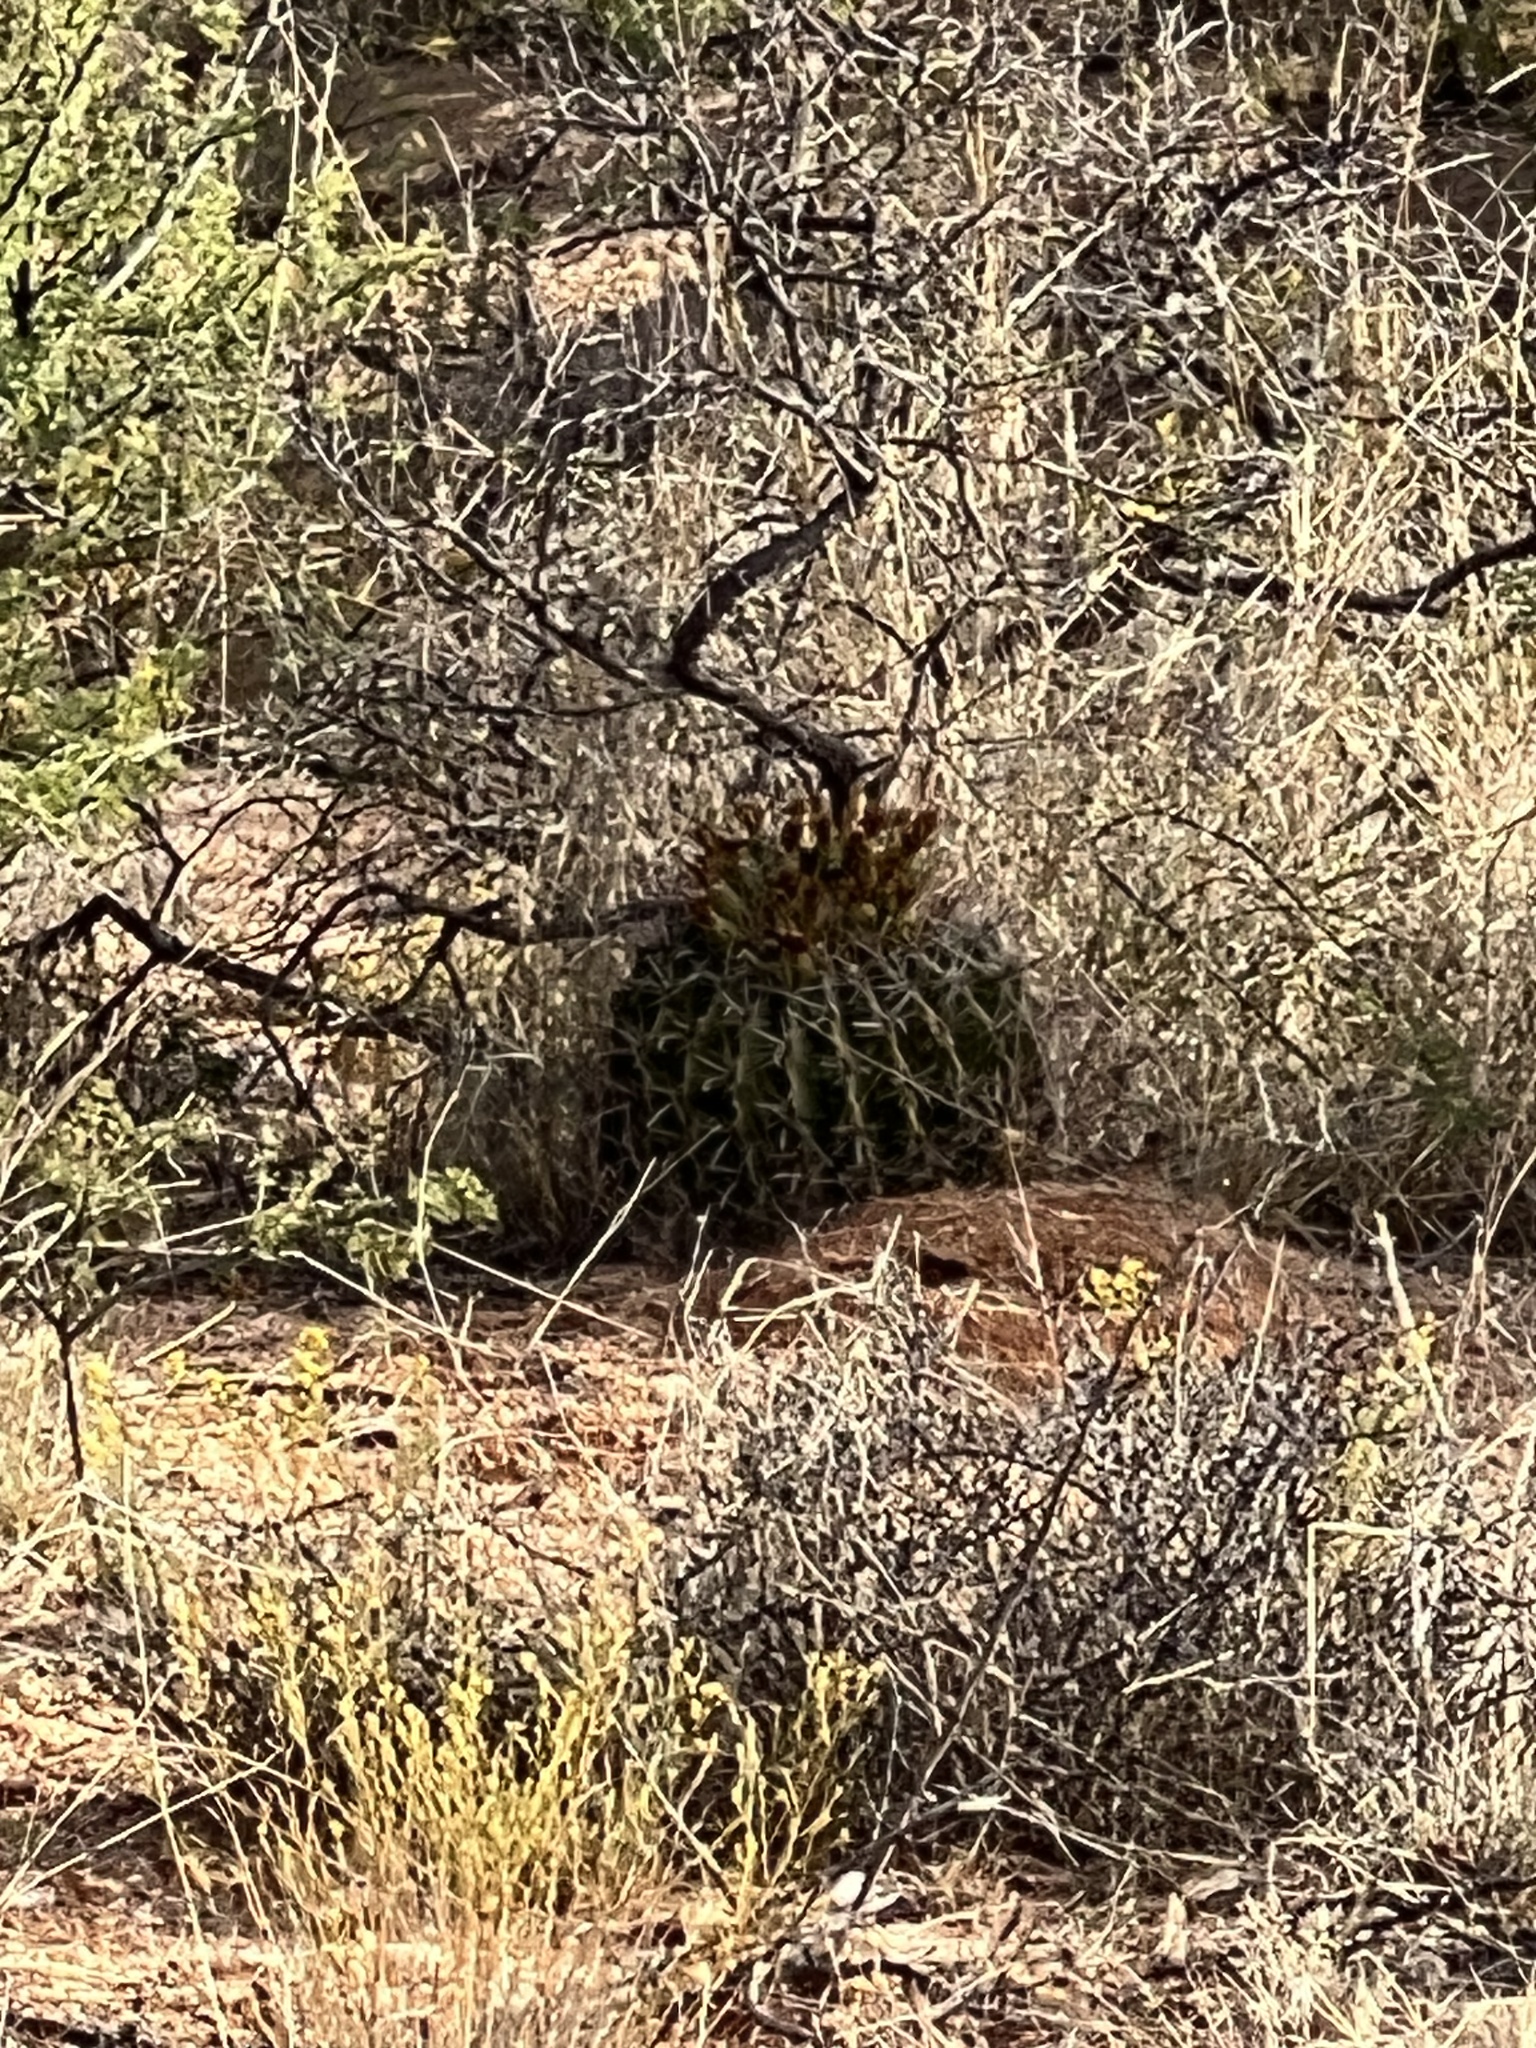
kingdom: Plantae
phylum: Tracheophyta
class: Magnoliopsida
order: Caryophyllales
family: Cactaceae
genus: Ferocactus
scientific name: Ferocactus wislizeni
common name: Candy barrel cactus
